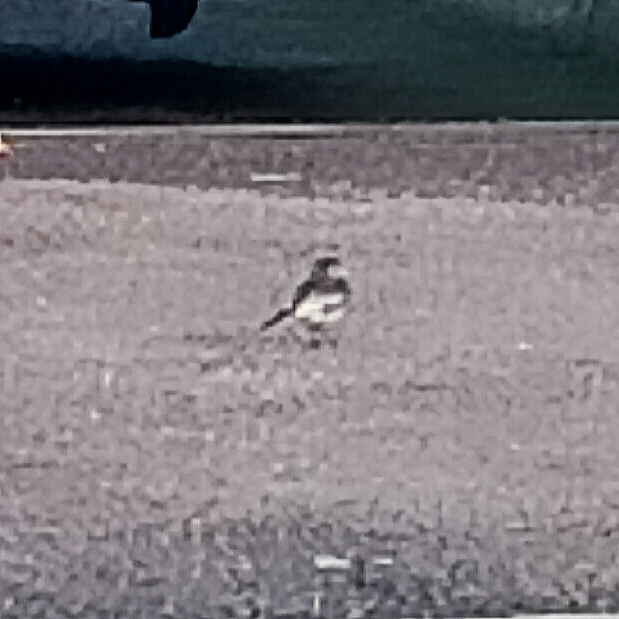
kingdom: Animalia
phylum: Chordata
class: Aves
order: Passeriformes
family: Motacillidae
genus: Motacilla
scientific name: Motacilla alba
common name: White wagtail
